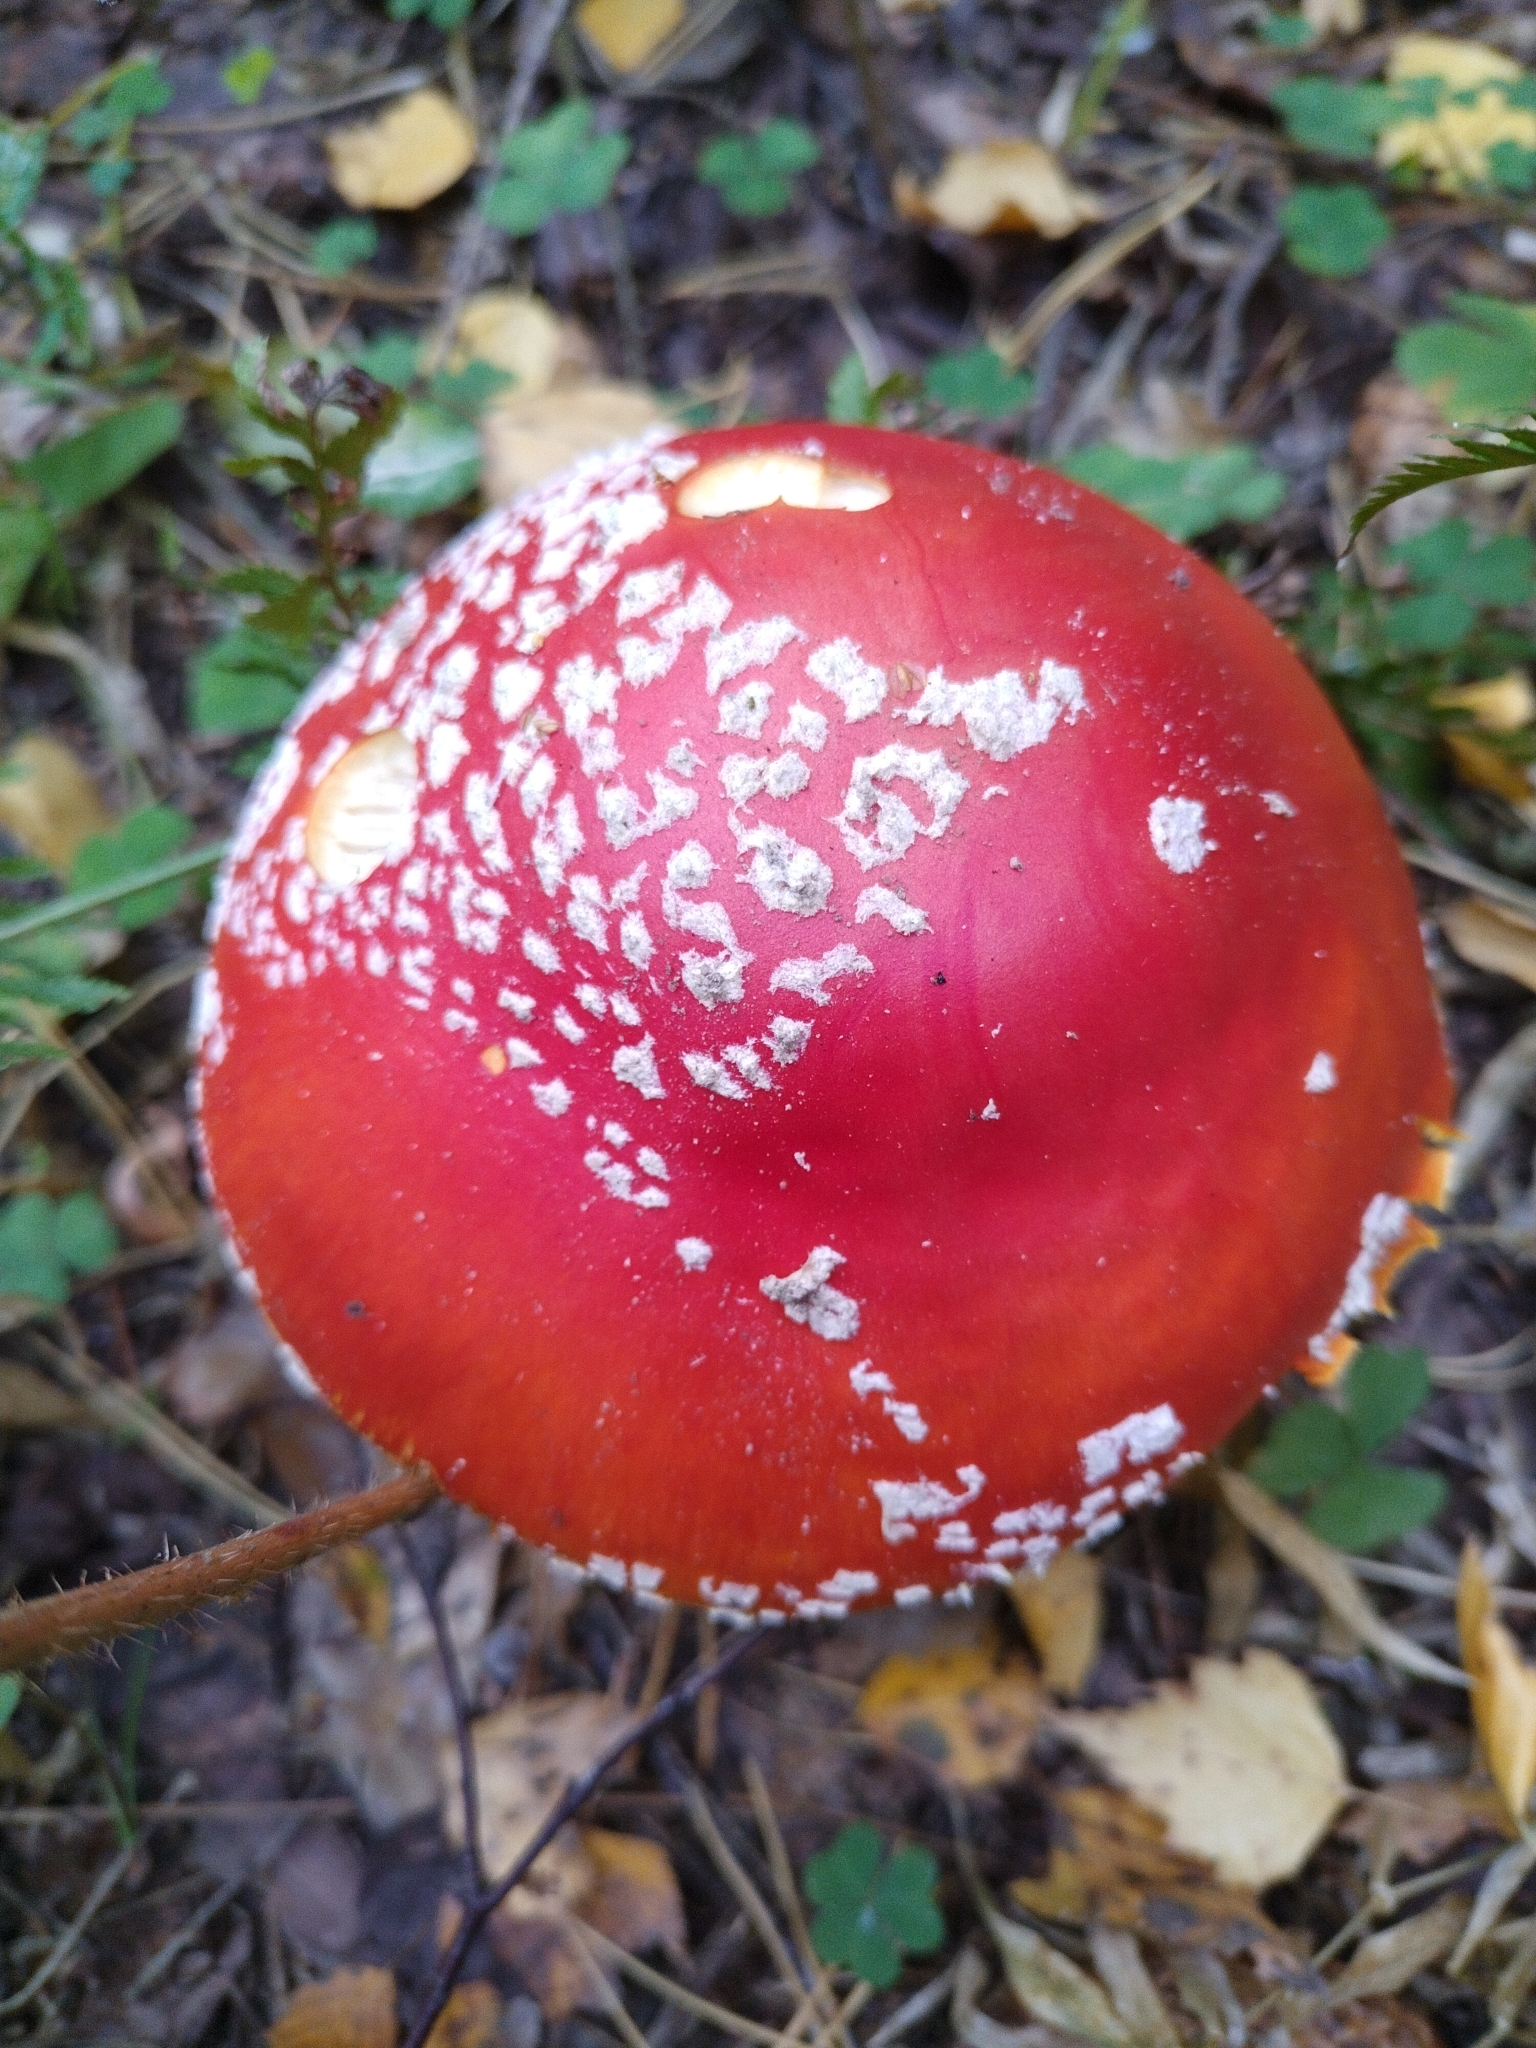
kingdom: Fungi
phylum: Basidiomycota
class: Agaricomycetes
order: Agaricales
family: Amanitaceae
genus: Amanita
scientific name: Amanita muscaria
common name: Fly agaric
